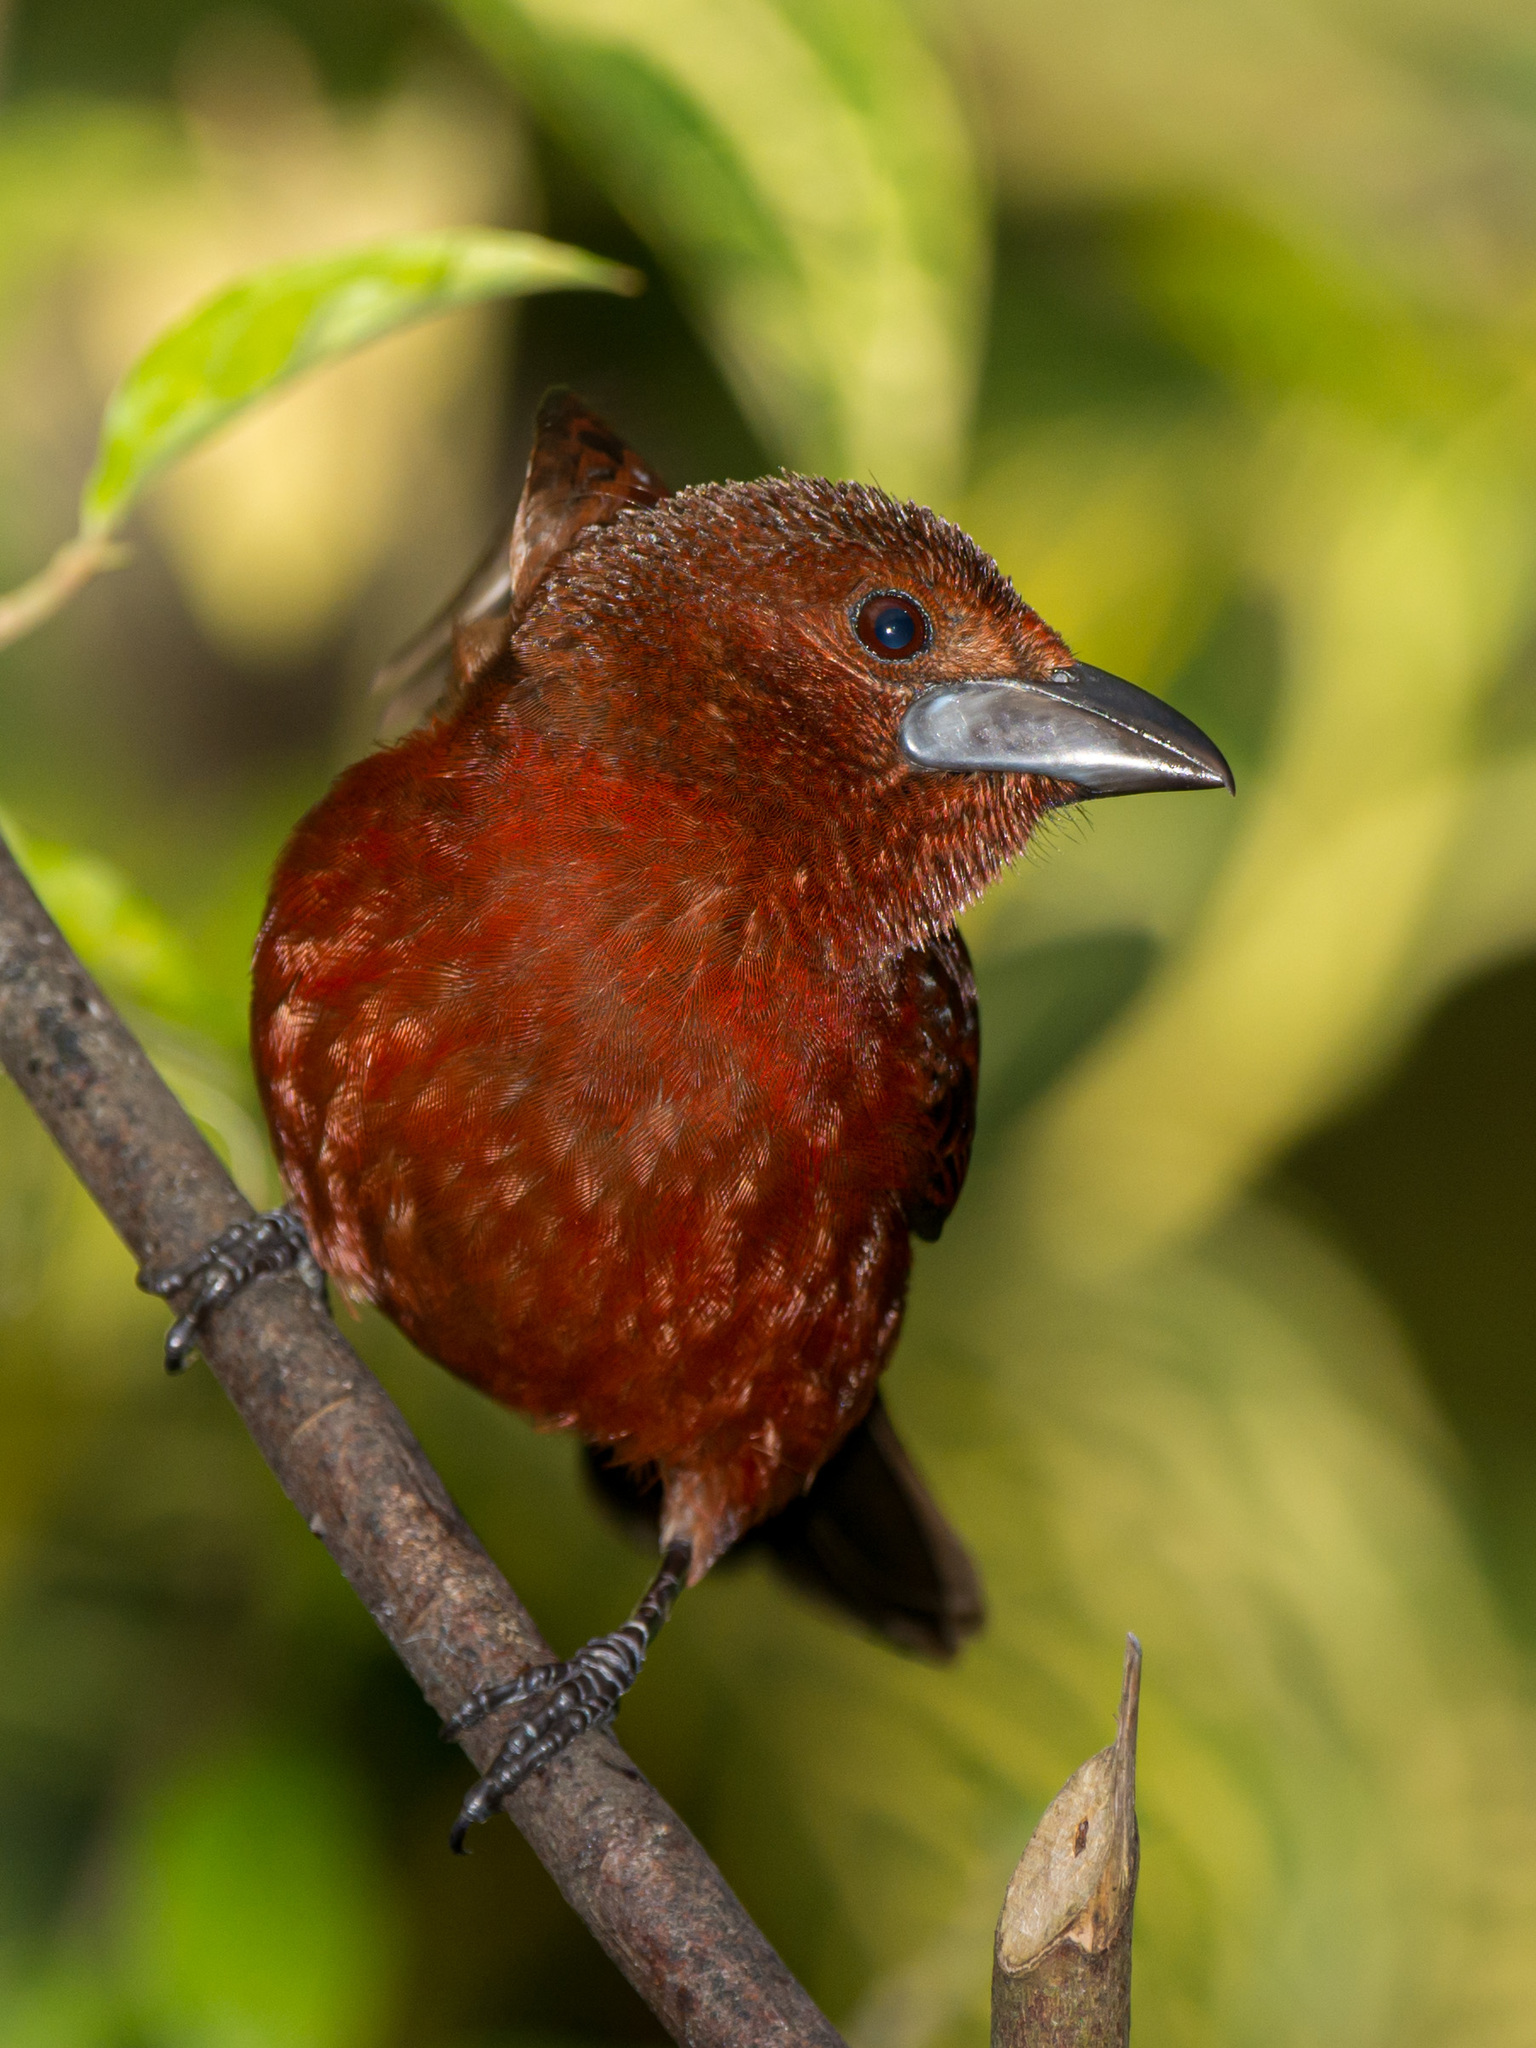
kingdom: Animalia
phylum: Chordata
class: Aves
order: Passeriformes
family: Thraupidae
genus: Ramphocelus
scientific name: Ramphocelus carbo
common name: Silver-beaked tanager
